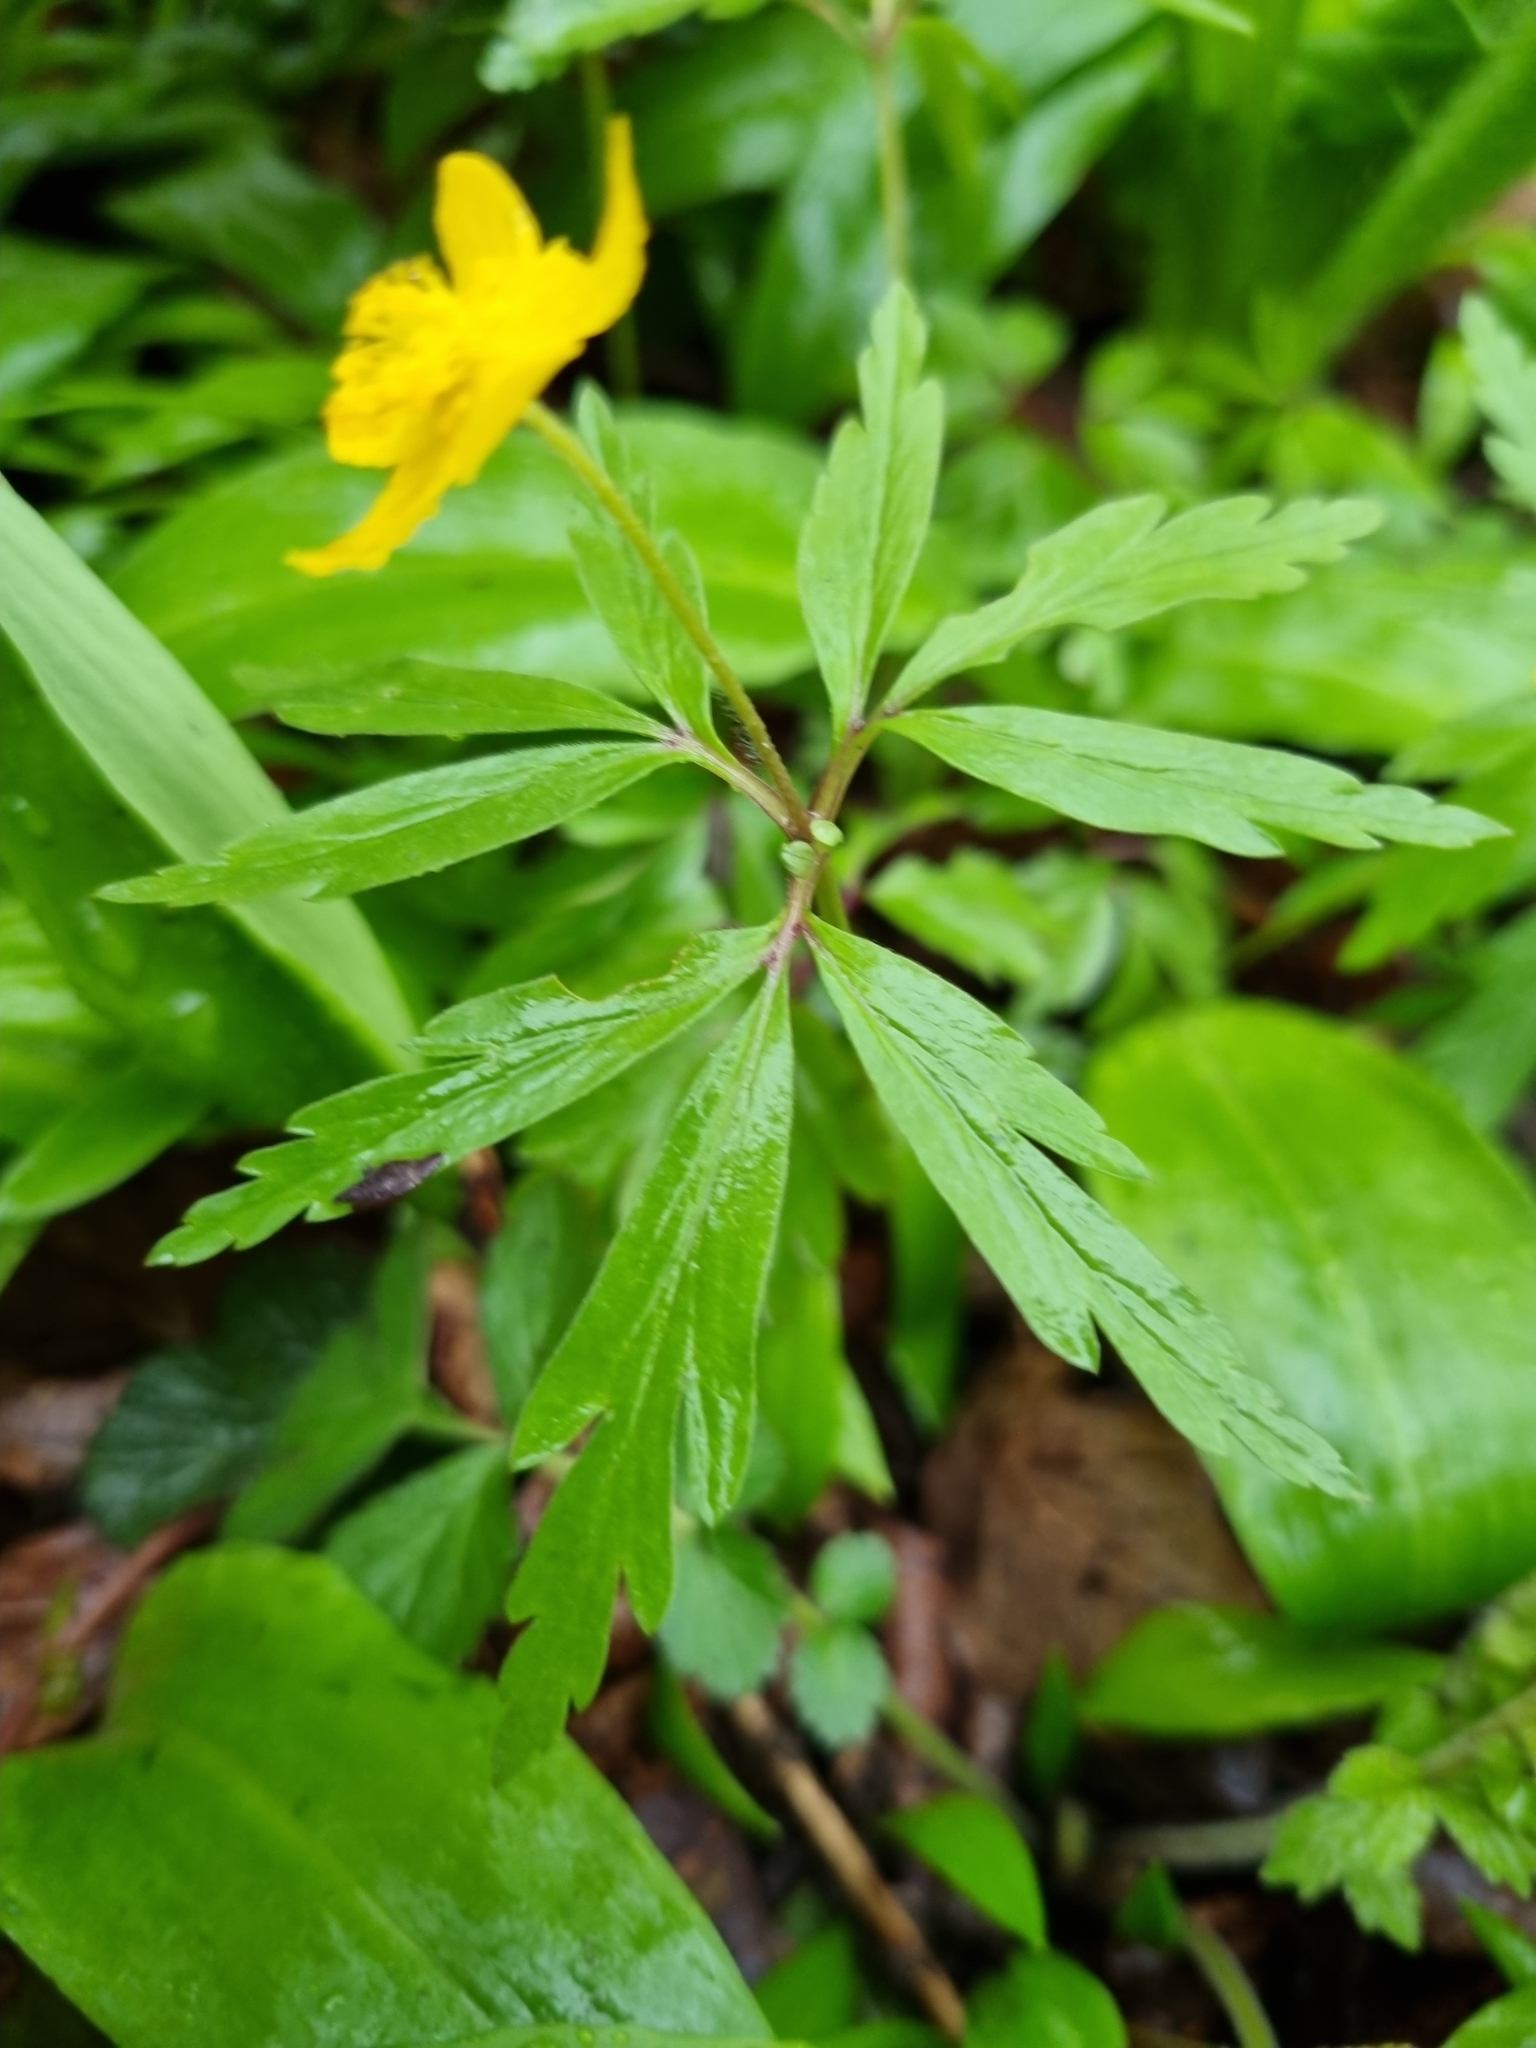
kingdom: Plantae
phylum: Tracheophyta
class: Magnoliopsida
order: Ranunculales
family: Ranunculaceae
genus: Anemone
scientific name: Anemone ranunculoides
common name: Yellow anemone
